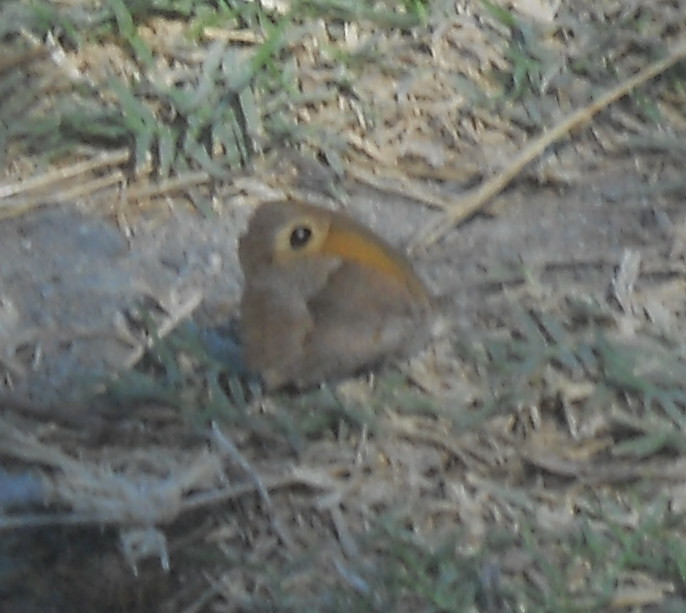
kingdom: Animalia
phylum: Arthropoda
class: Insecta
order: Lepidoptera
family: Nymphalidae
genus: Maniola
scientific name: Maniola telmessia
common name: Persian meadow brown
